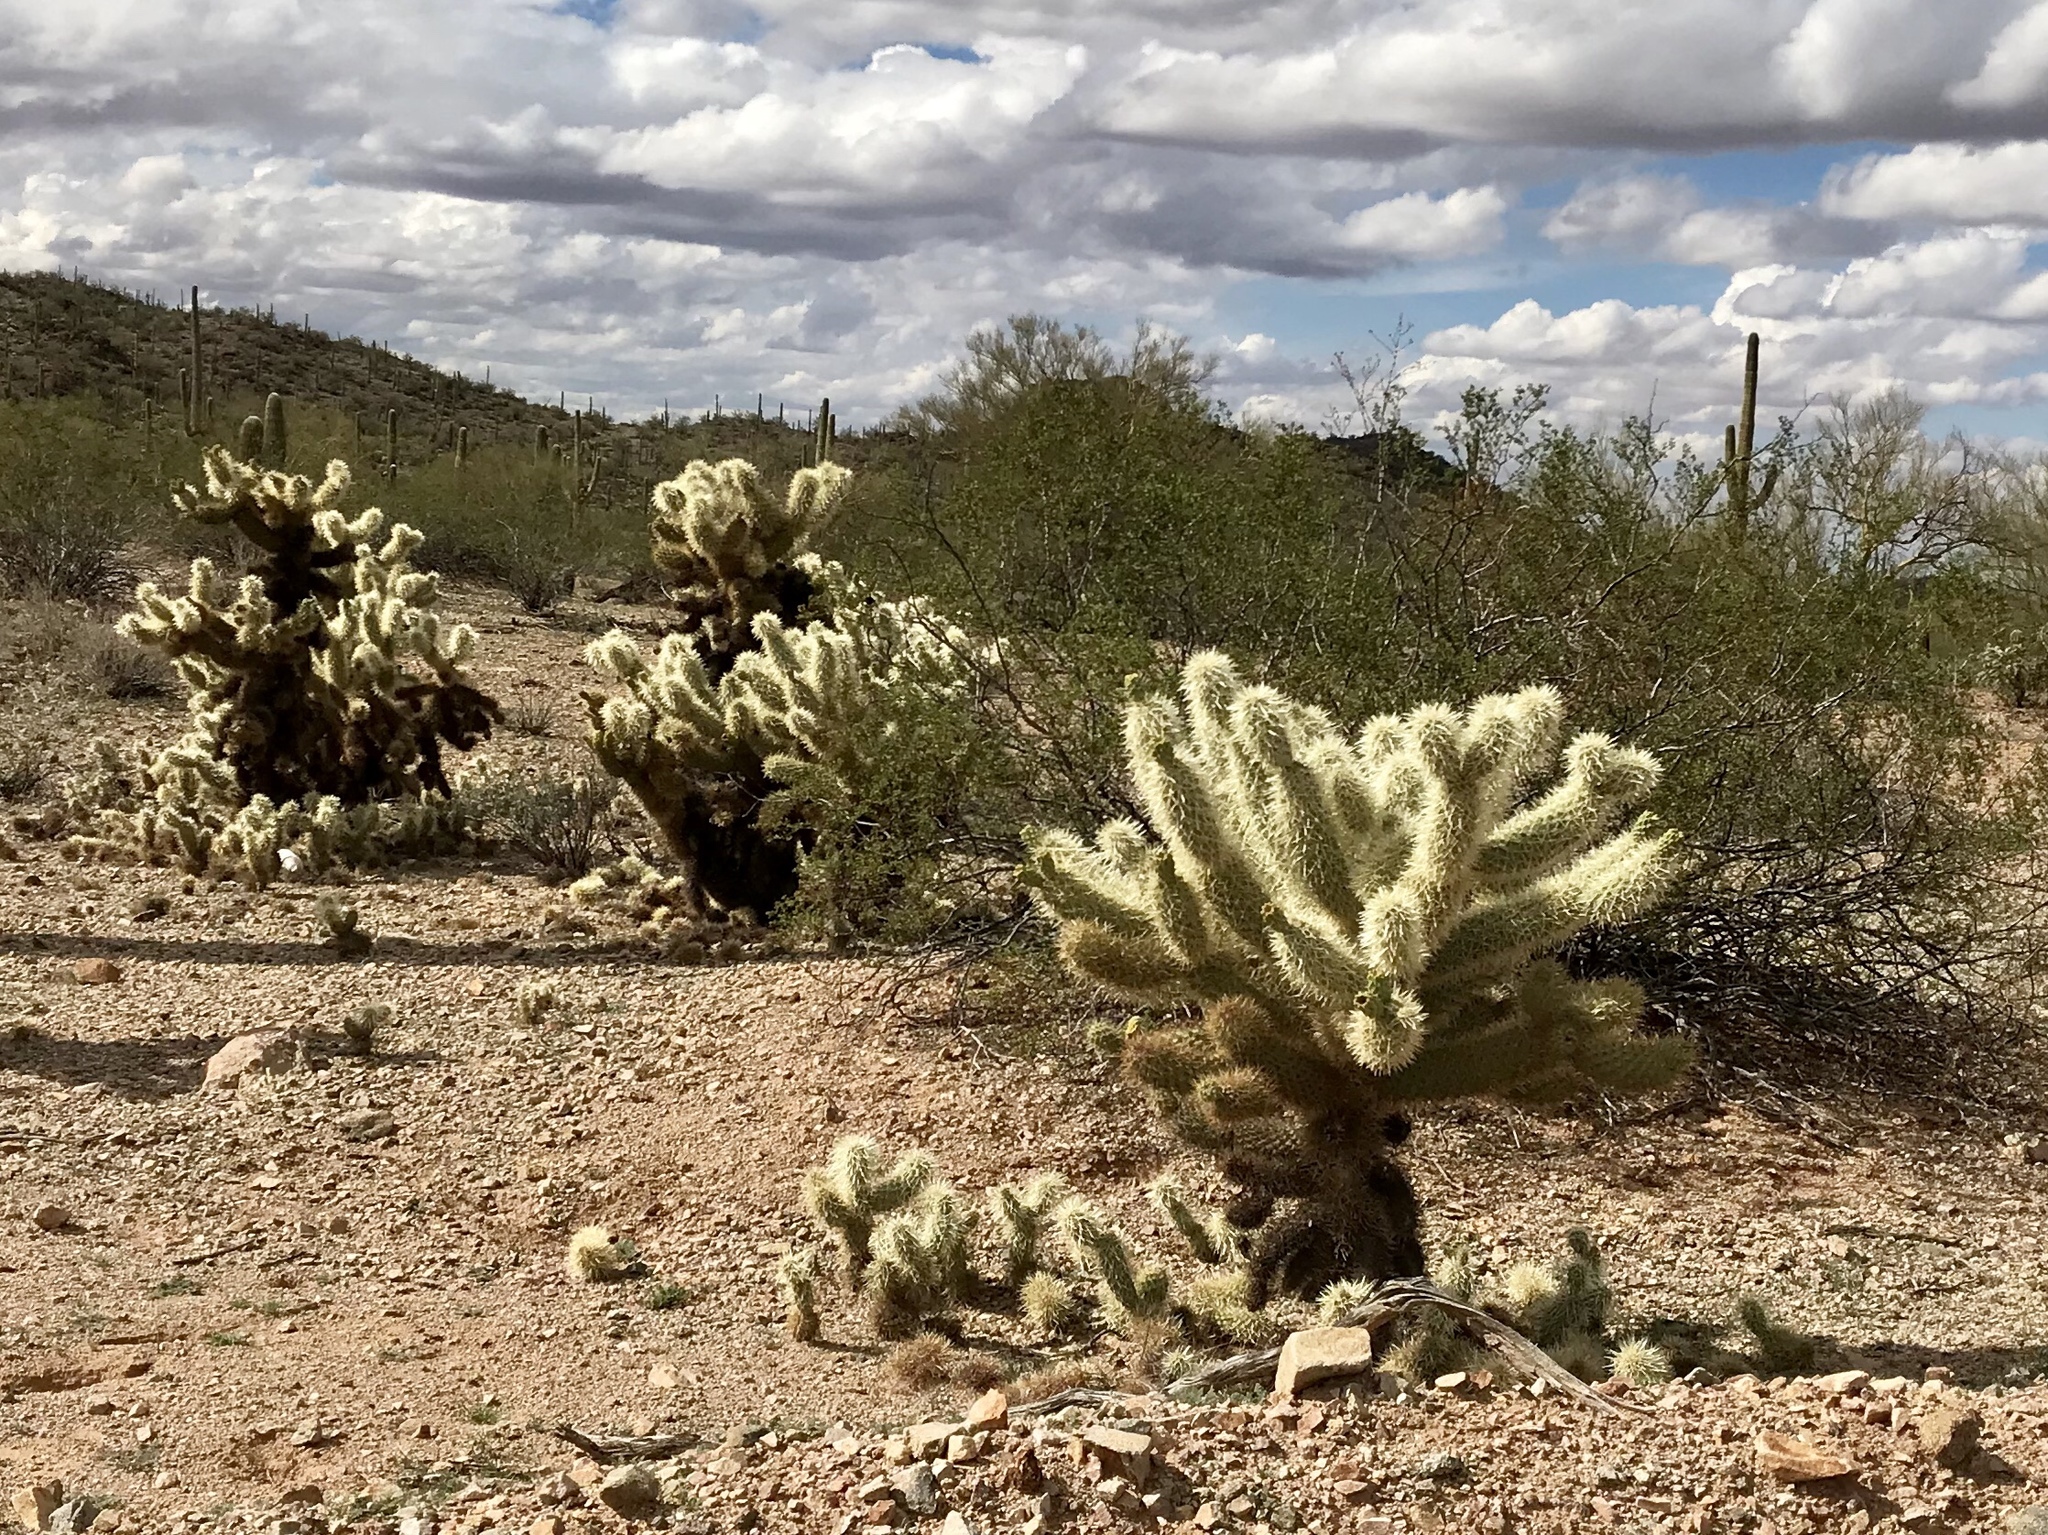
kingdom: Plantae
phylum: Tracheophyta
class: Magnoliopsida
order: Caryophyllales
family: Cactaceae
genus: Cylindropuntia
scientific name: Cylindropuntia fosbergii
